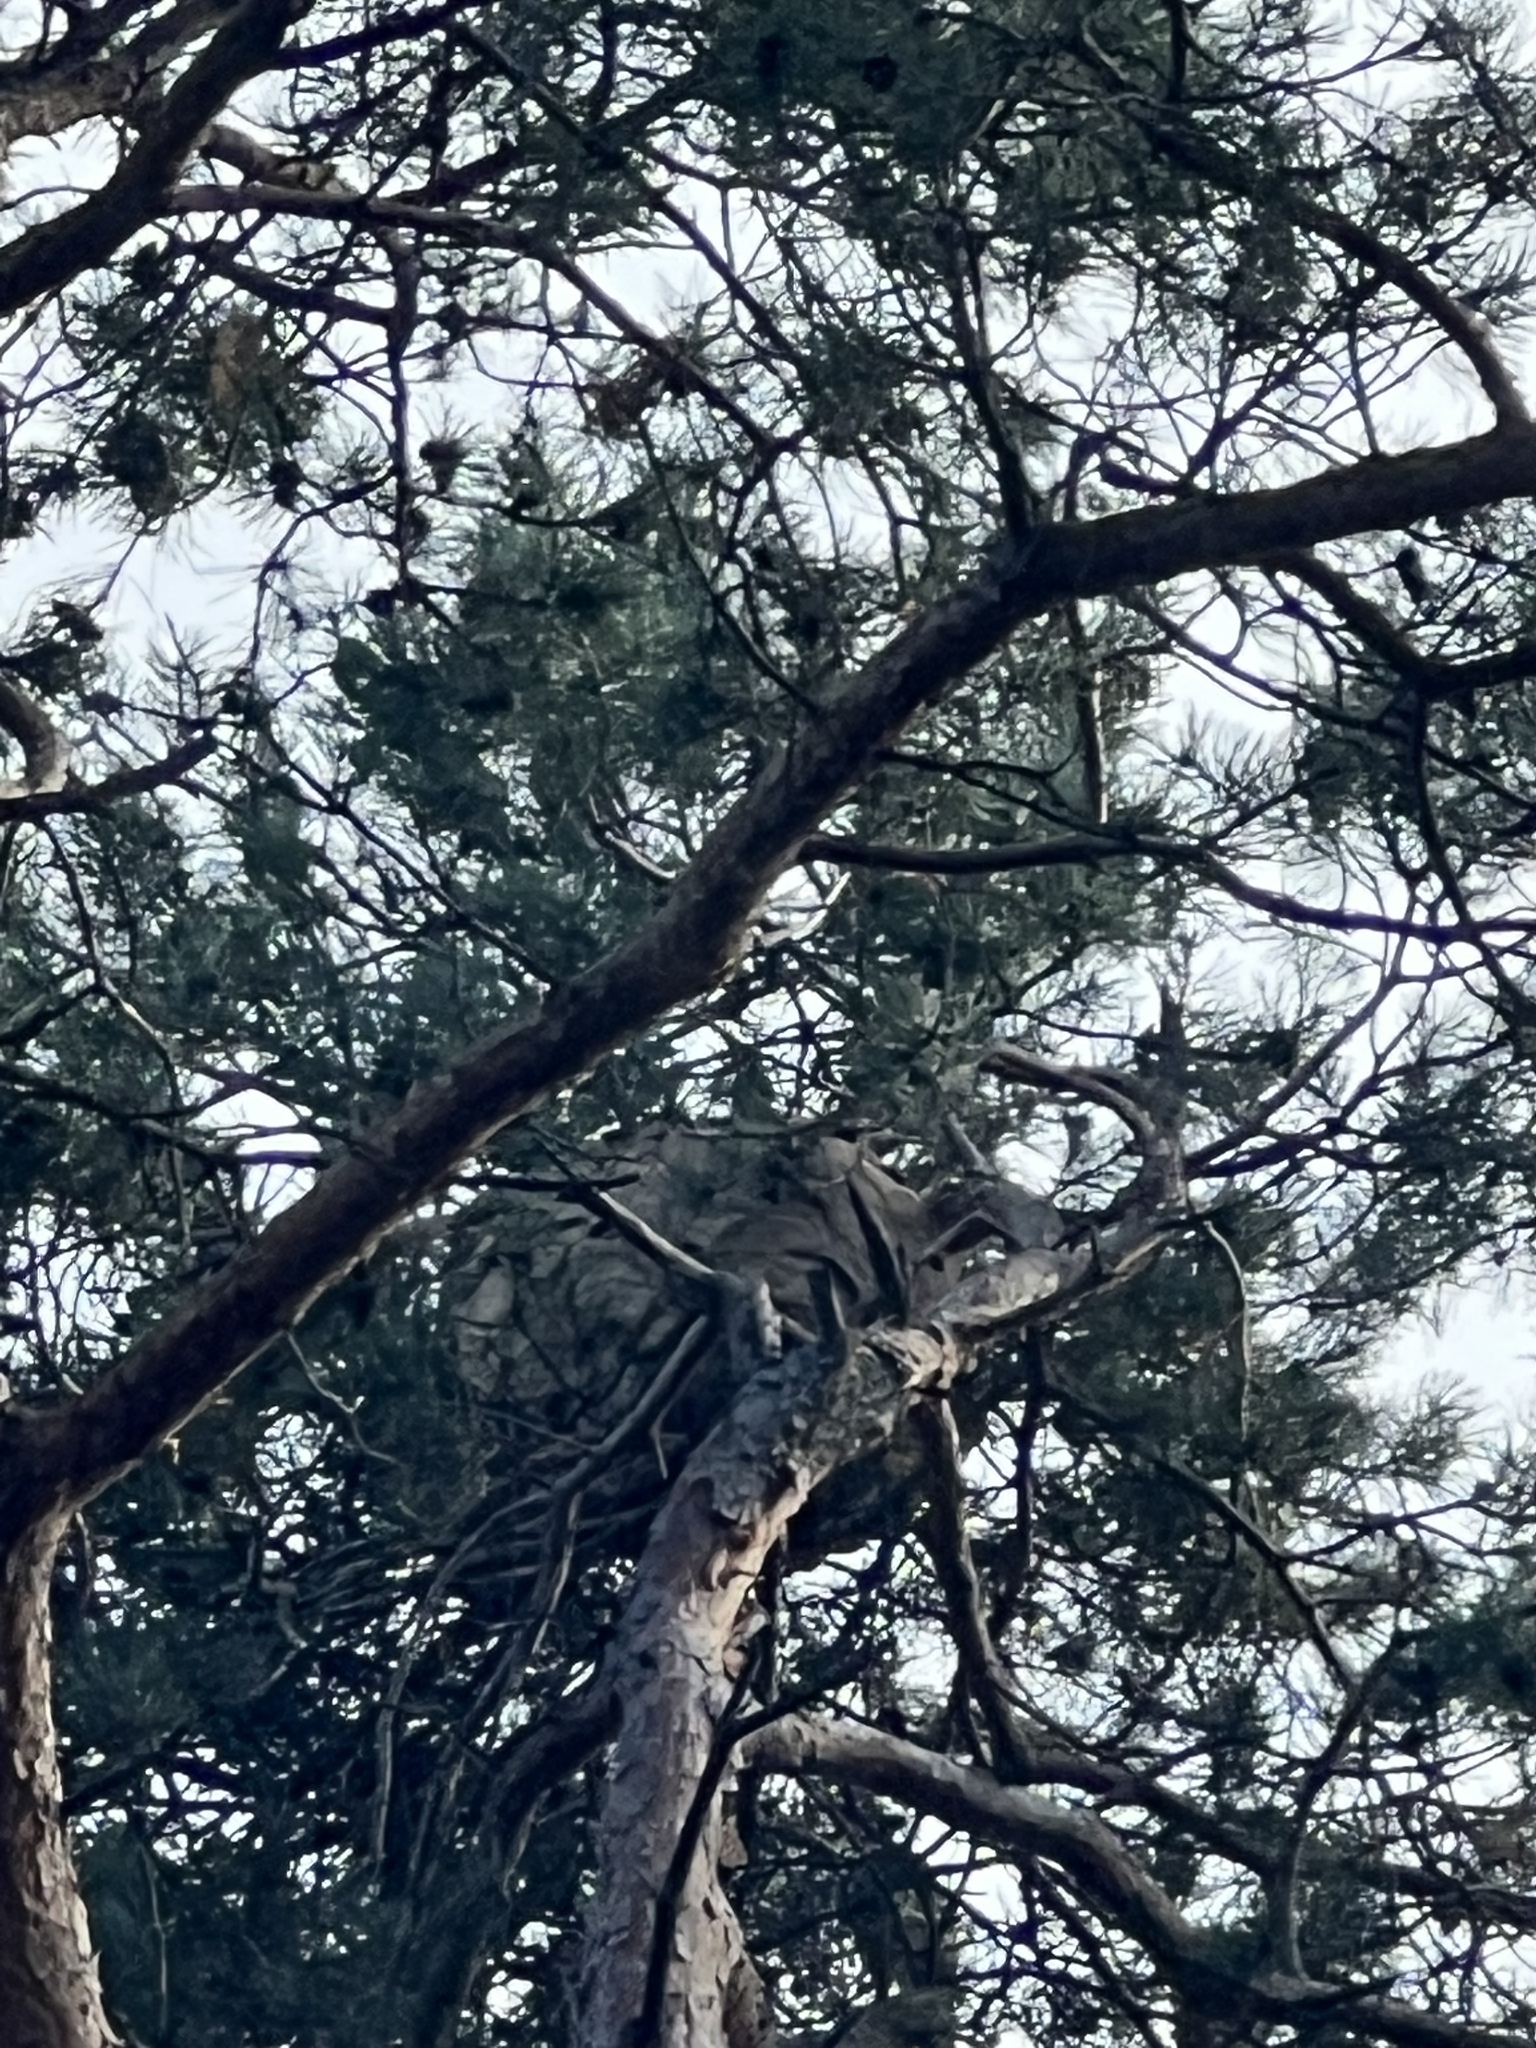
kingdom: Animalia
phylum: Arthropoda
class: Insecta
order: Hymenoptera
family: Vespidae
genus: Vespa
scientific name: Vespa velutina
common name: Asian hornet
